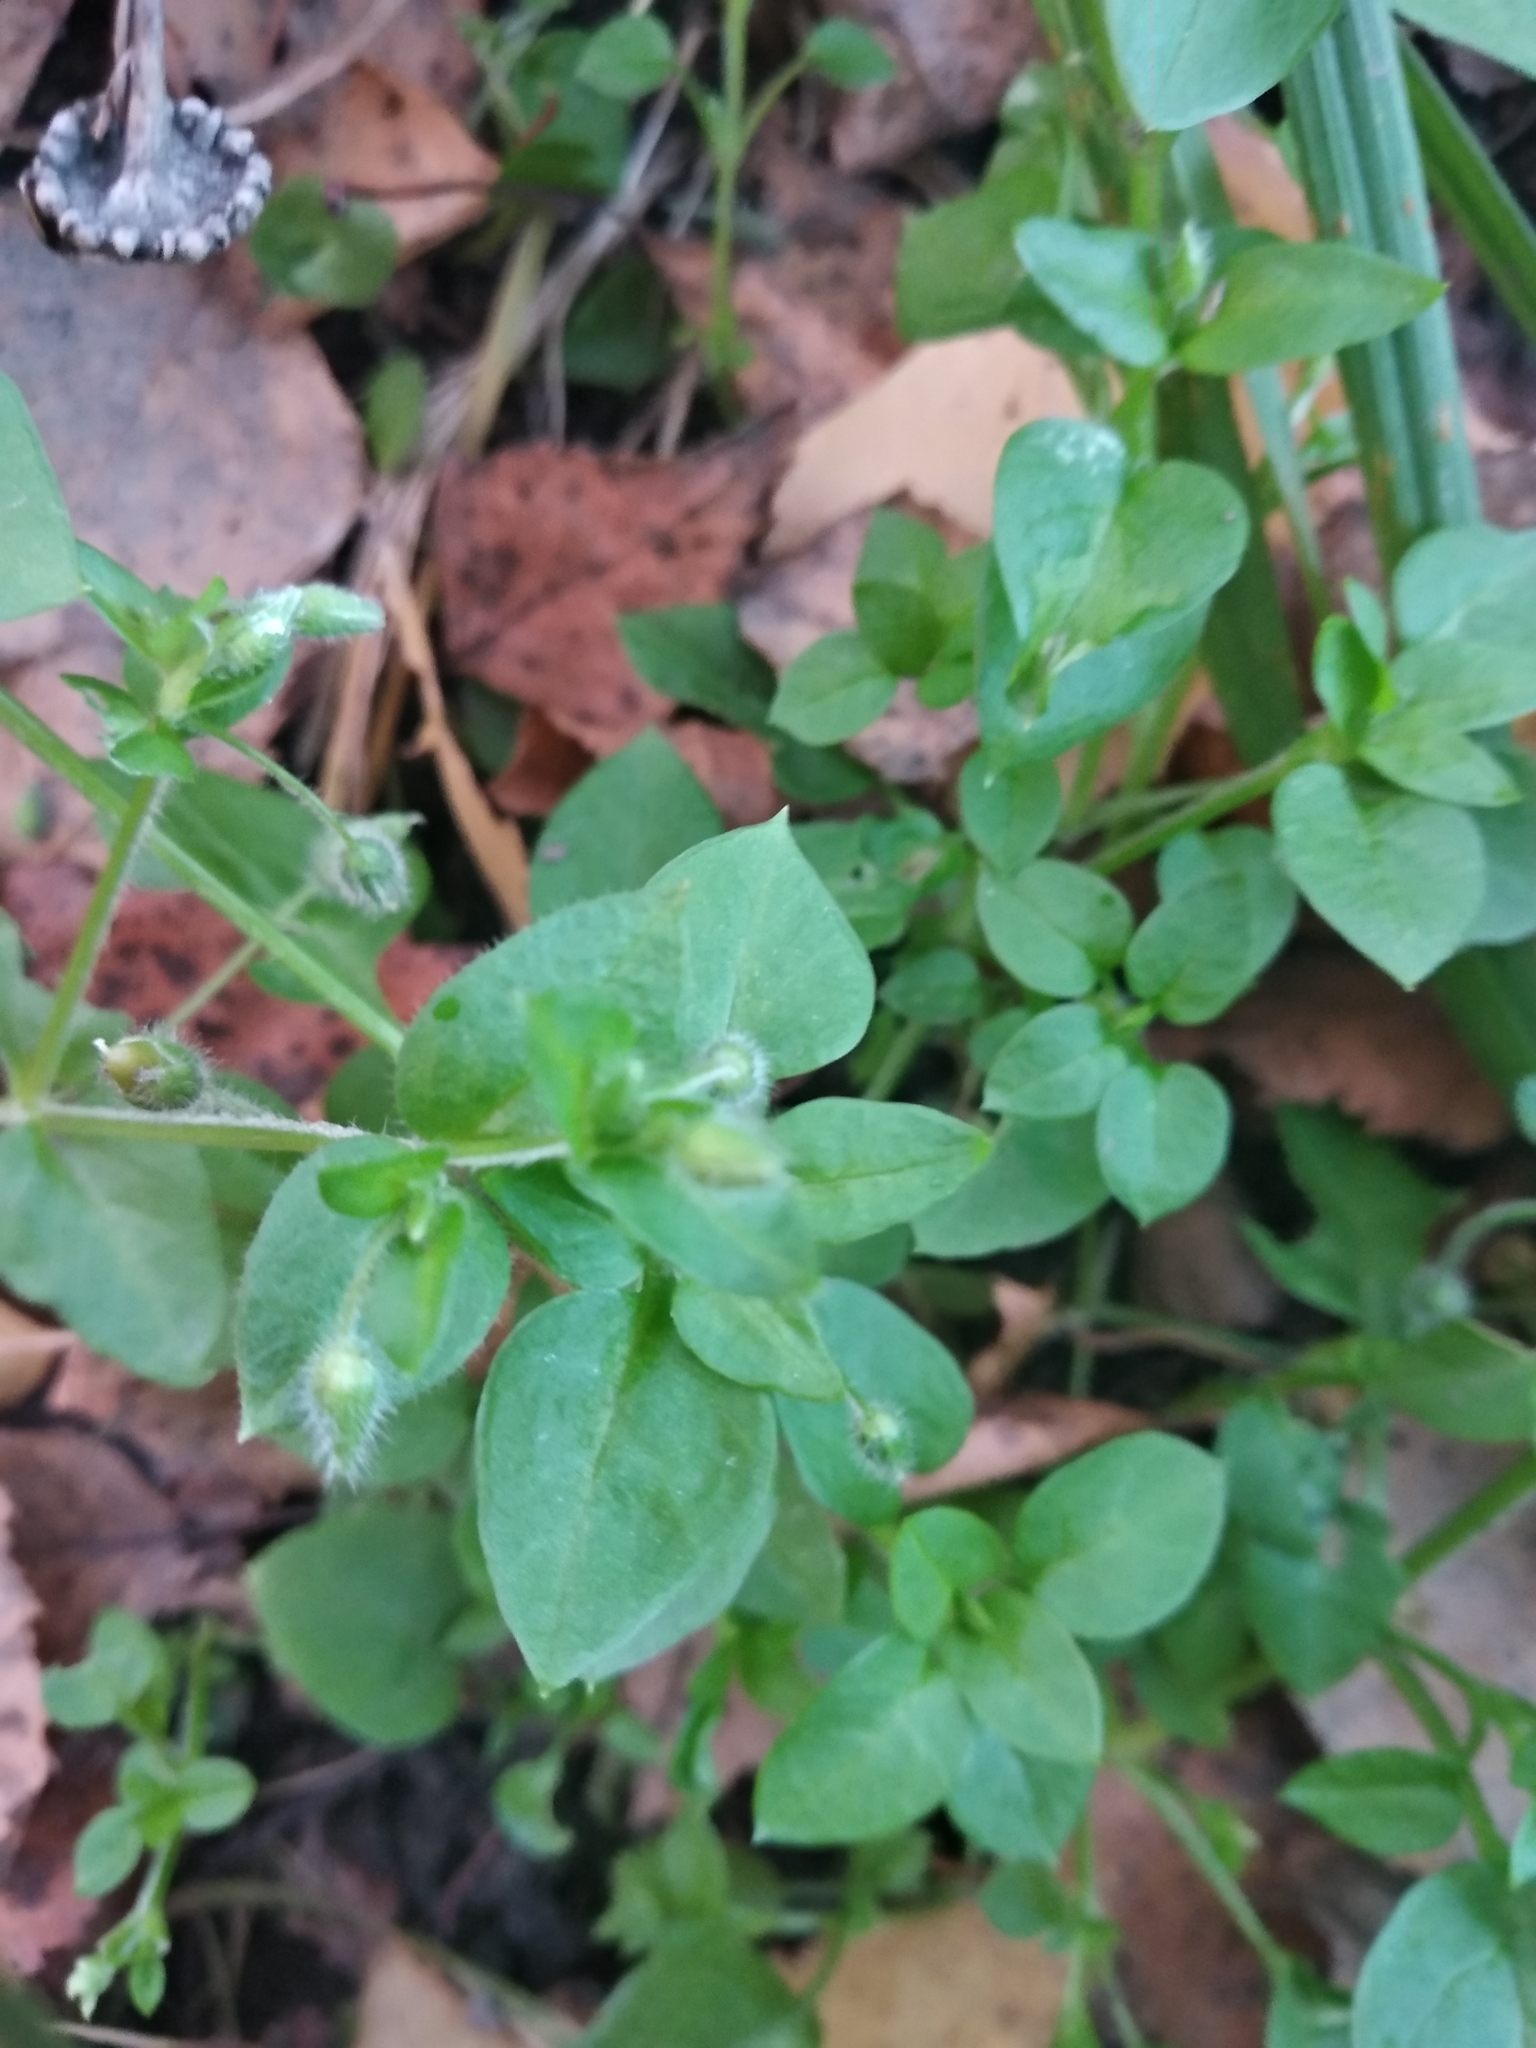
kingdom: Plantae
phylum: Tracheophyta
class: Magnoliopsida
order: Caryophyllales
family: Caryophyllaceae
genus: Stellaria
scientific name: Stellaria media
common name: Common chickweed
